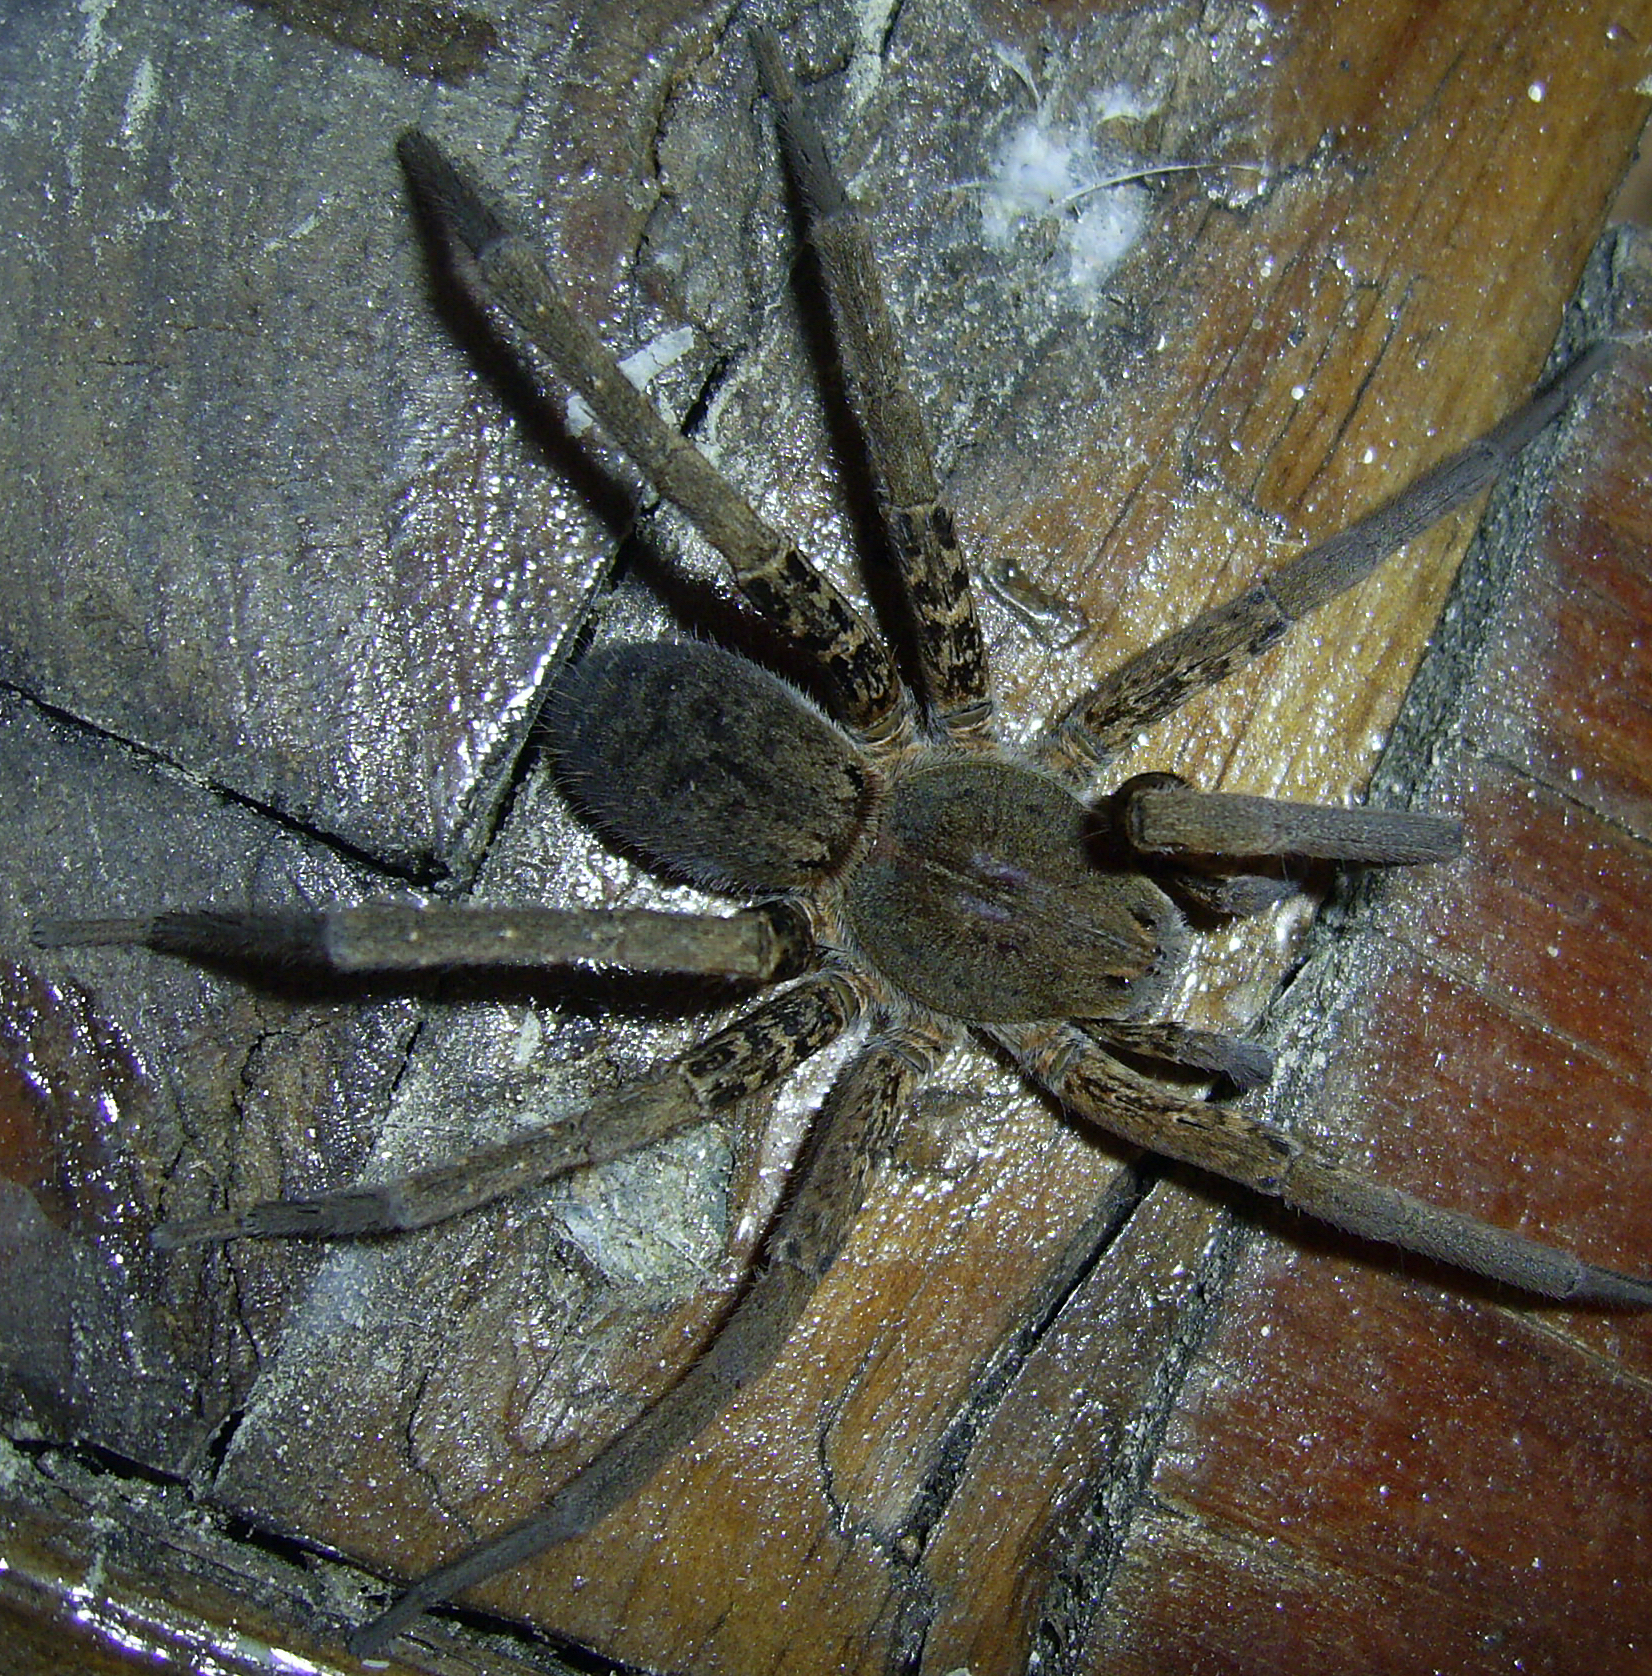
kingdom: Animalia
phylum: Arthropoda
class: Arachnida
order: Araneae
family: Ctenidae
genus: Ancylometes
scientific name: Ancylometes bogotensis
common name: Wandering spiders
